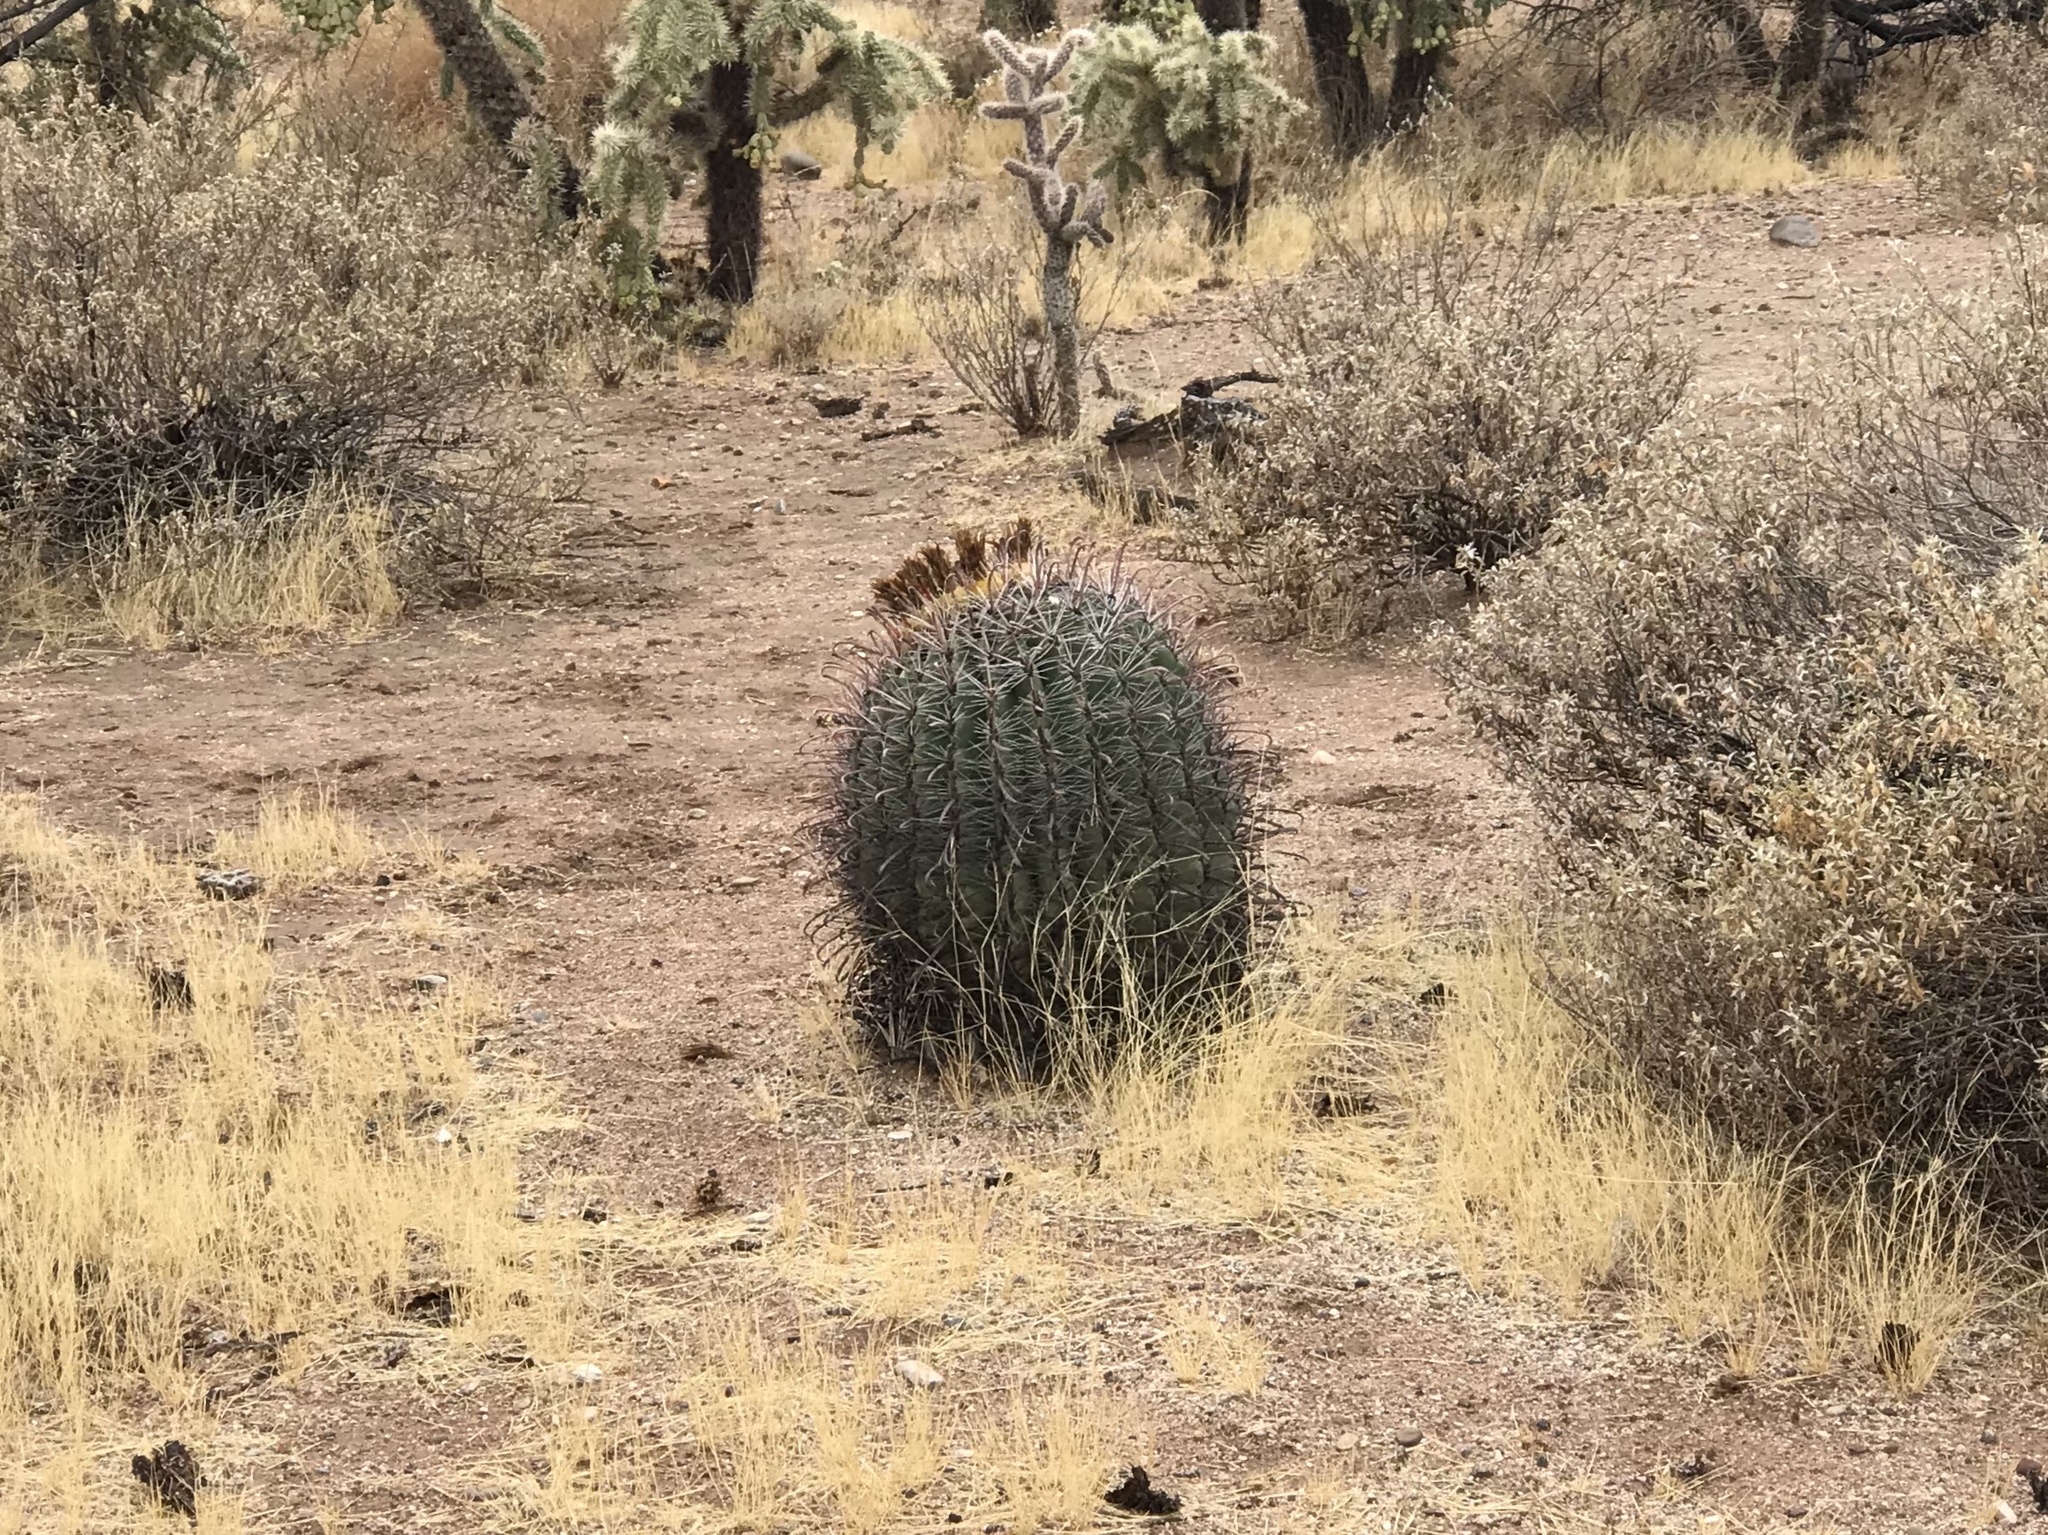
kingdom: Plantae
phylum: Tracheophyta
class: Magnoliopsida
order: Caryophyllales
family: Cactaceae
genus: Ferocactus
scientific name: Ferocactus wislizeni
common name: Candy barrel cactus
